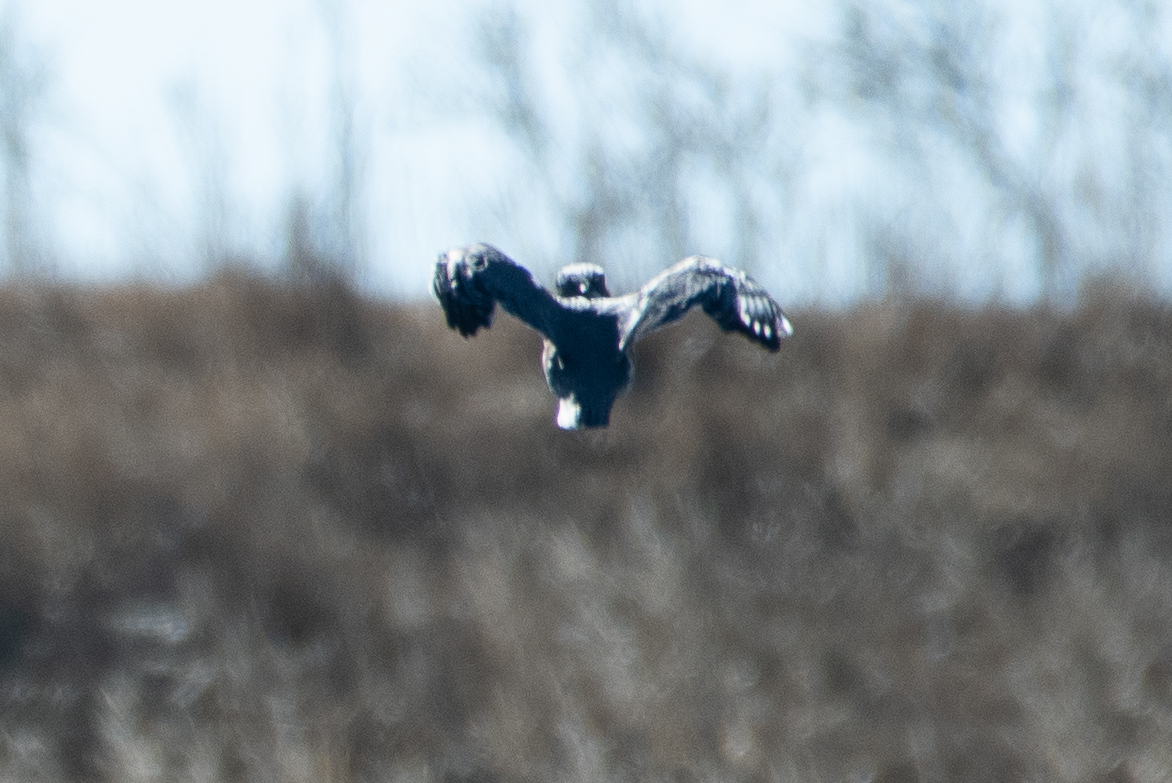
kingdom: Animalia
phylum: Chordata
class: Aves
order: Coraciiformes
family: Alcedinidae
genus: Megaceryle
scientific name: Megaceryle alcyon
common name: Belted kingfisher
